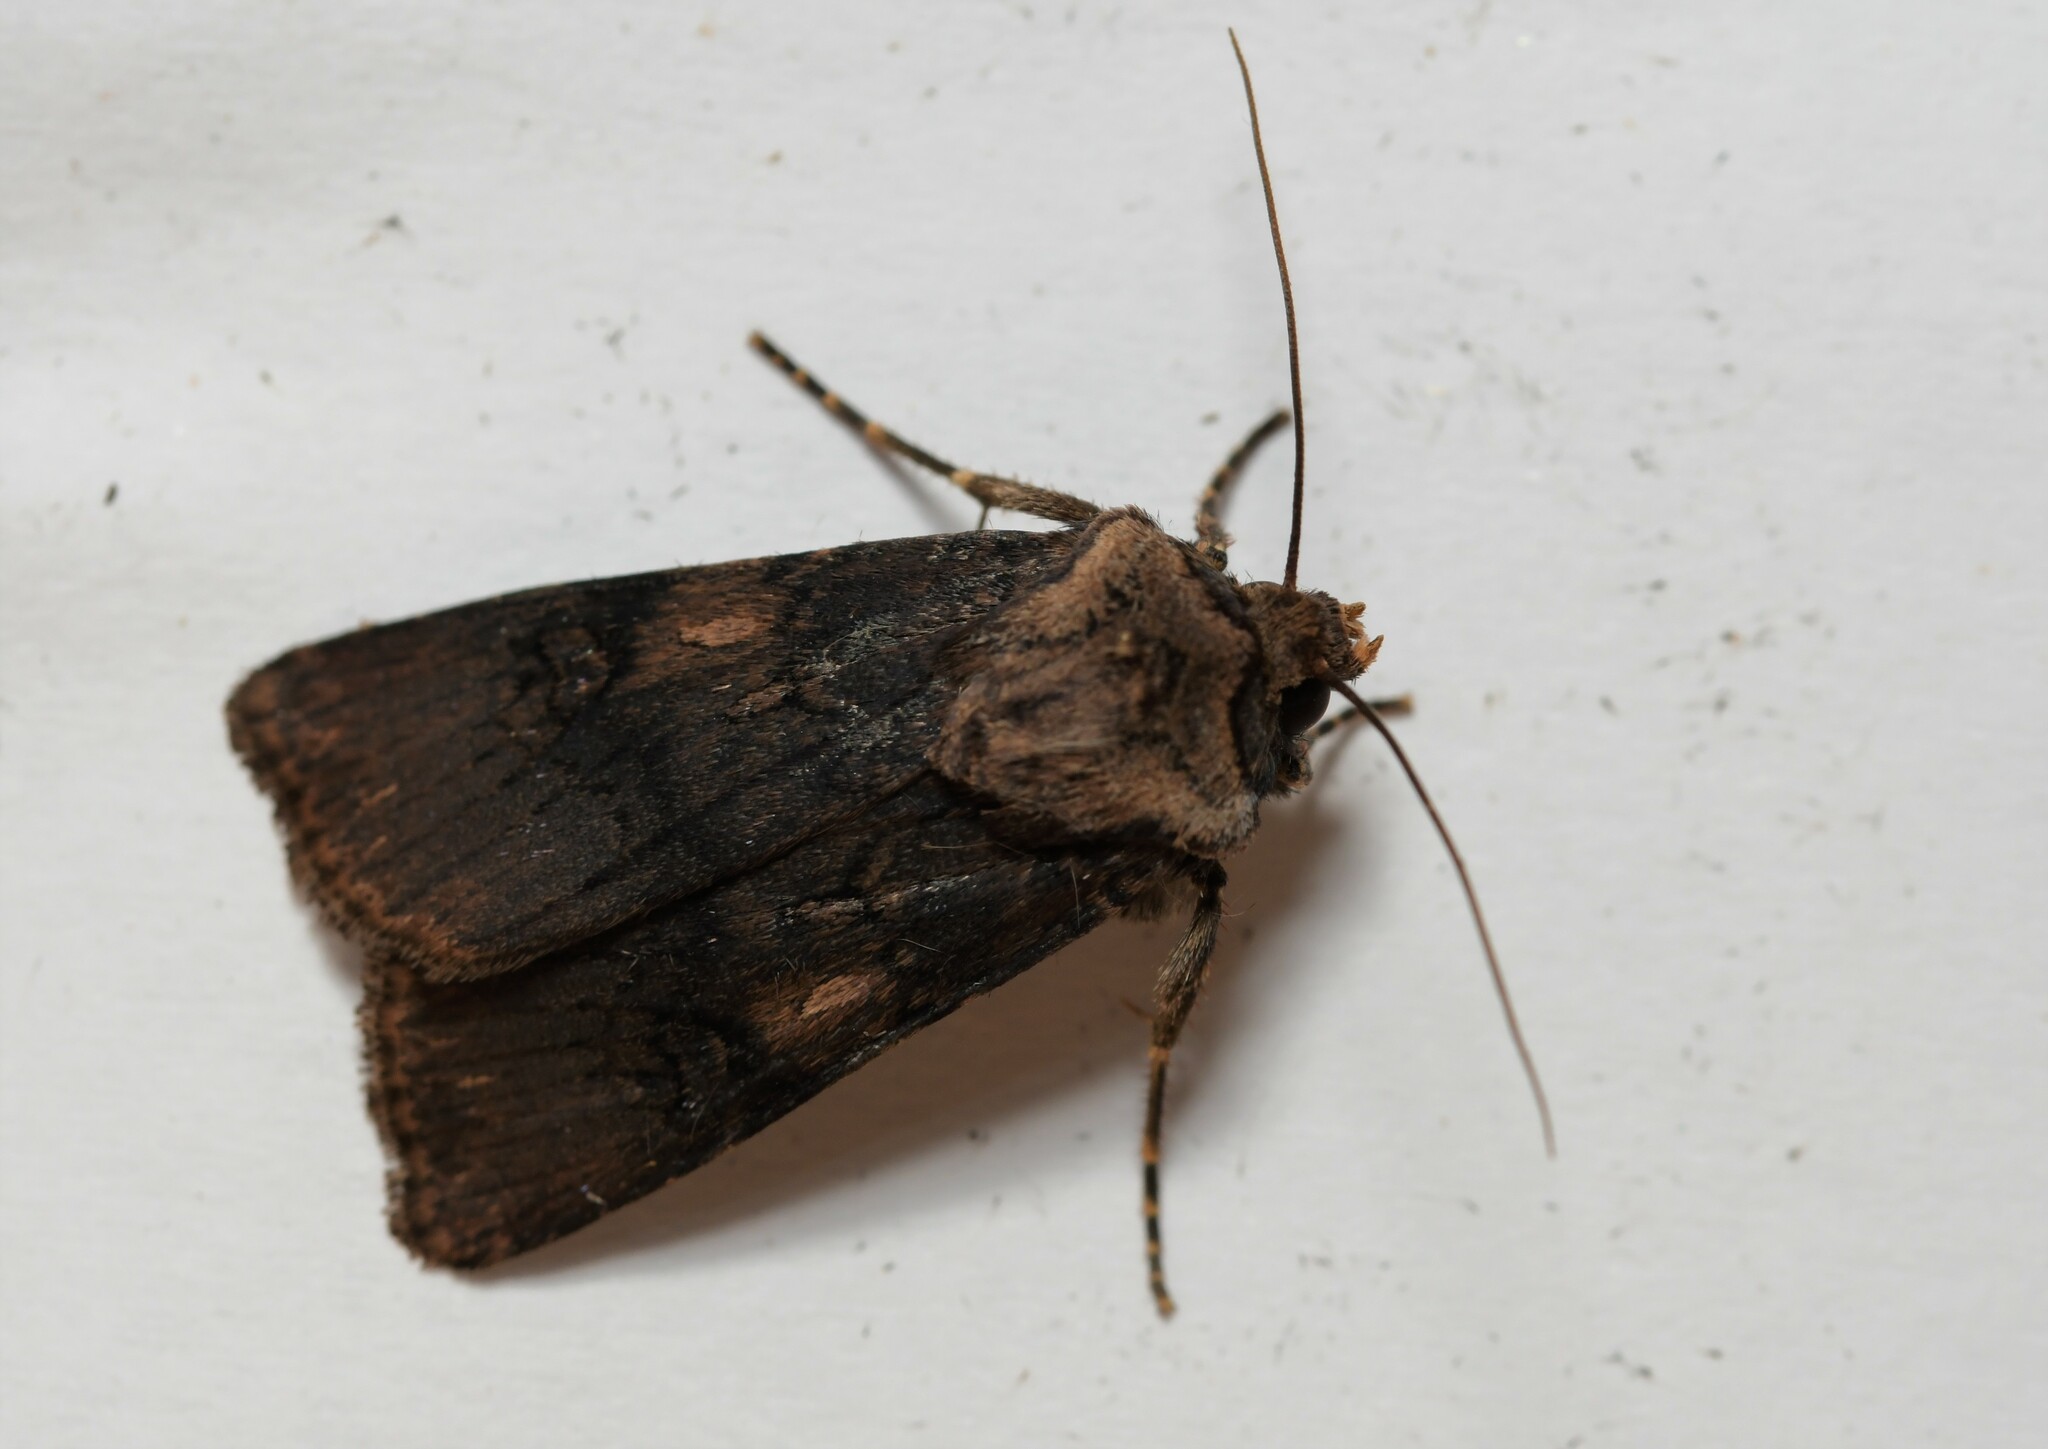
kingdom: Animalia
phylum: Arthropoda
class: Insecta
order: Lepidoptera
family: Noctuidae
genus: Agrotis
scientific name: Agrotis puta
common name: Shuttle-shaped dart
